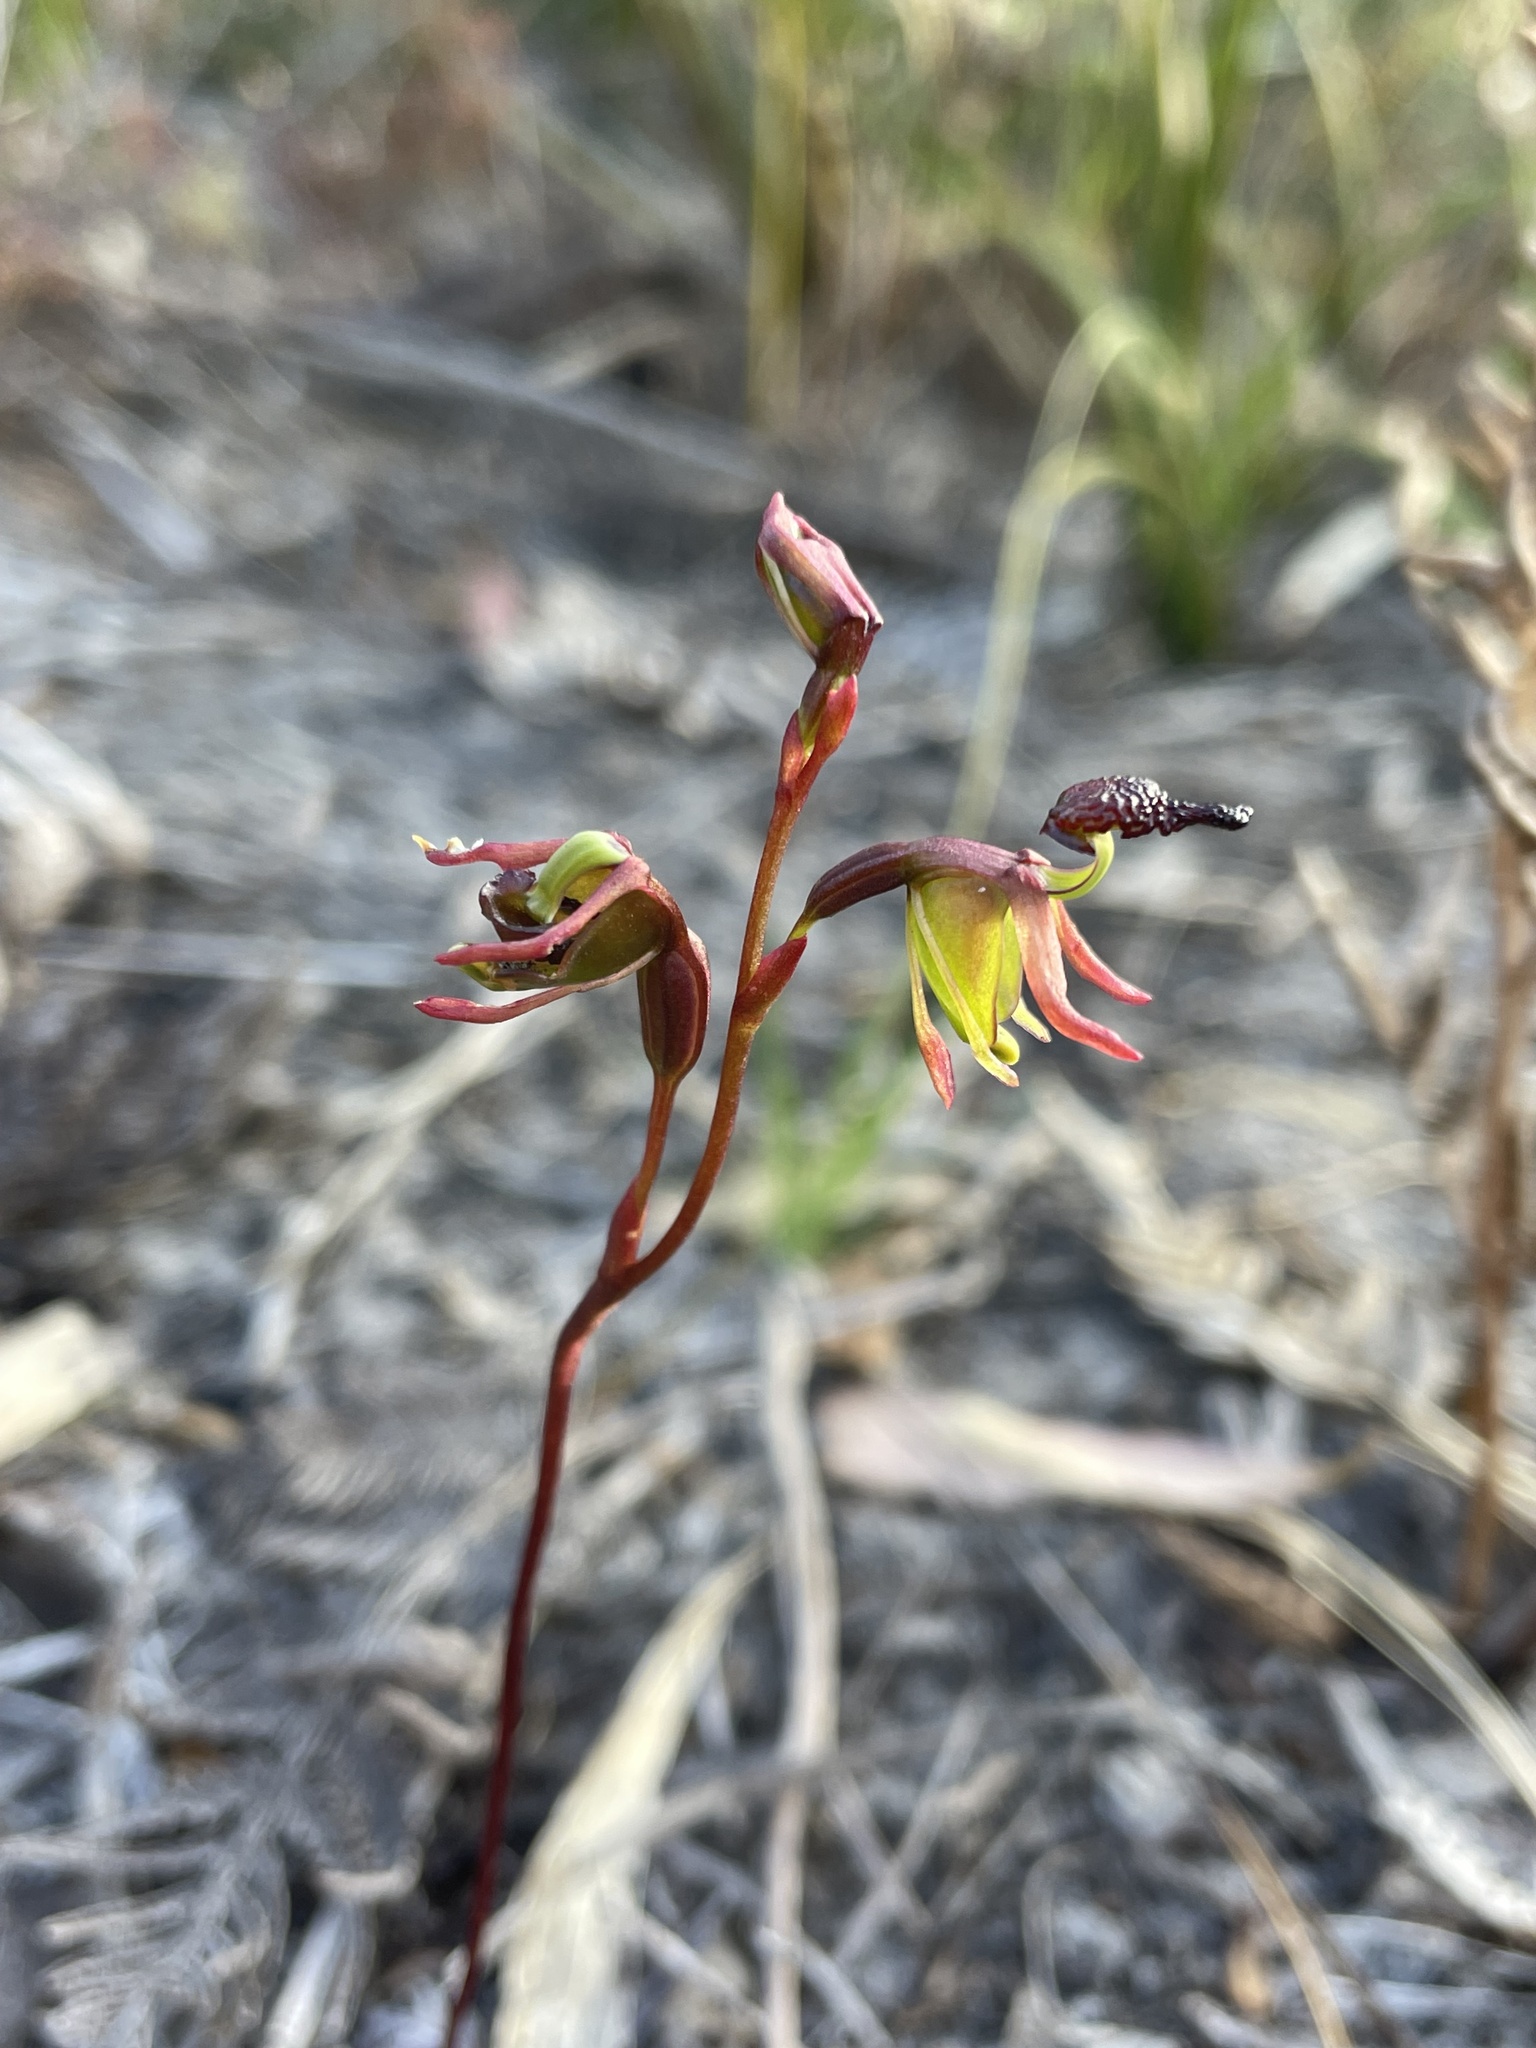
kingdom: Plantae
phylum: Tracheophyta
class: Liliopsida
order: Asparagales
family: Orchidaceae
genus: Caleana
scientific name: Caleana minor
